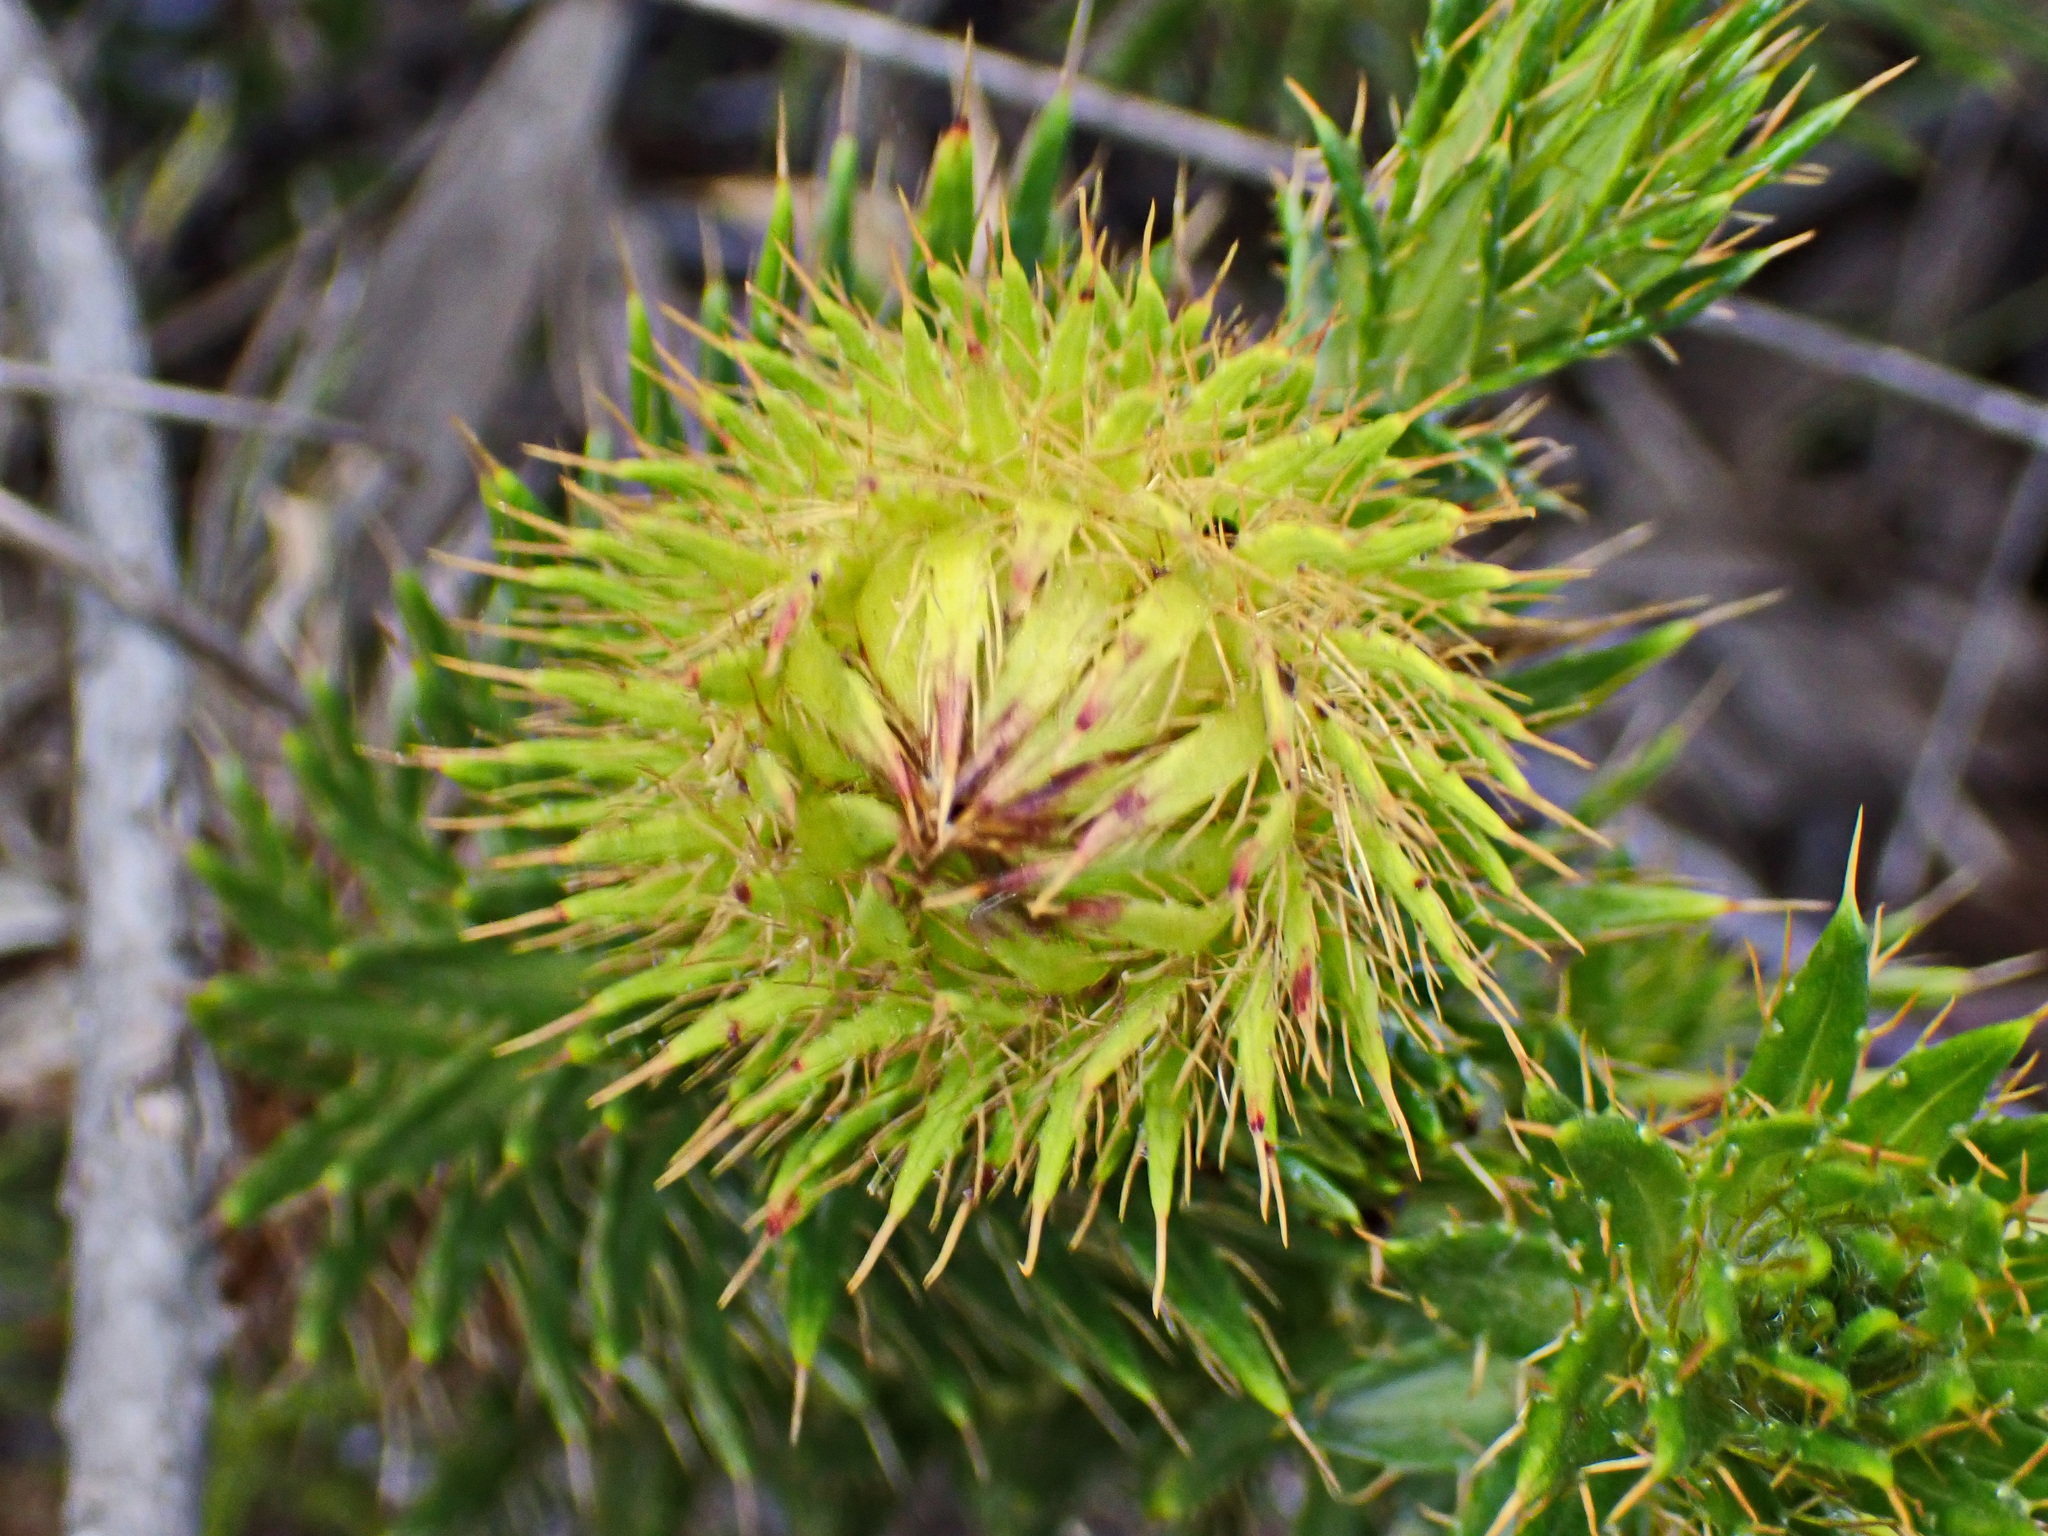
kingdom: Plantae
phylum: Tracheophyta
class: Magnoliopsida
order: Asterales
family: Asteraceae
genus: Cullumia
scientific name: Cullumia carlinoides
